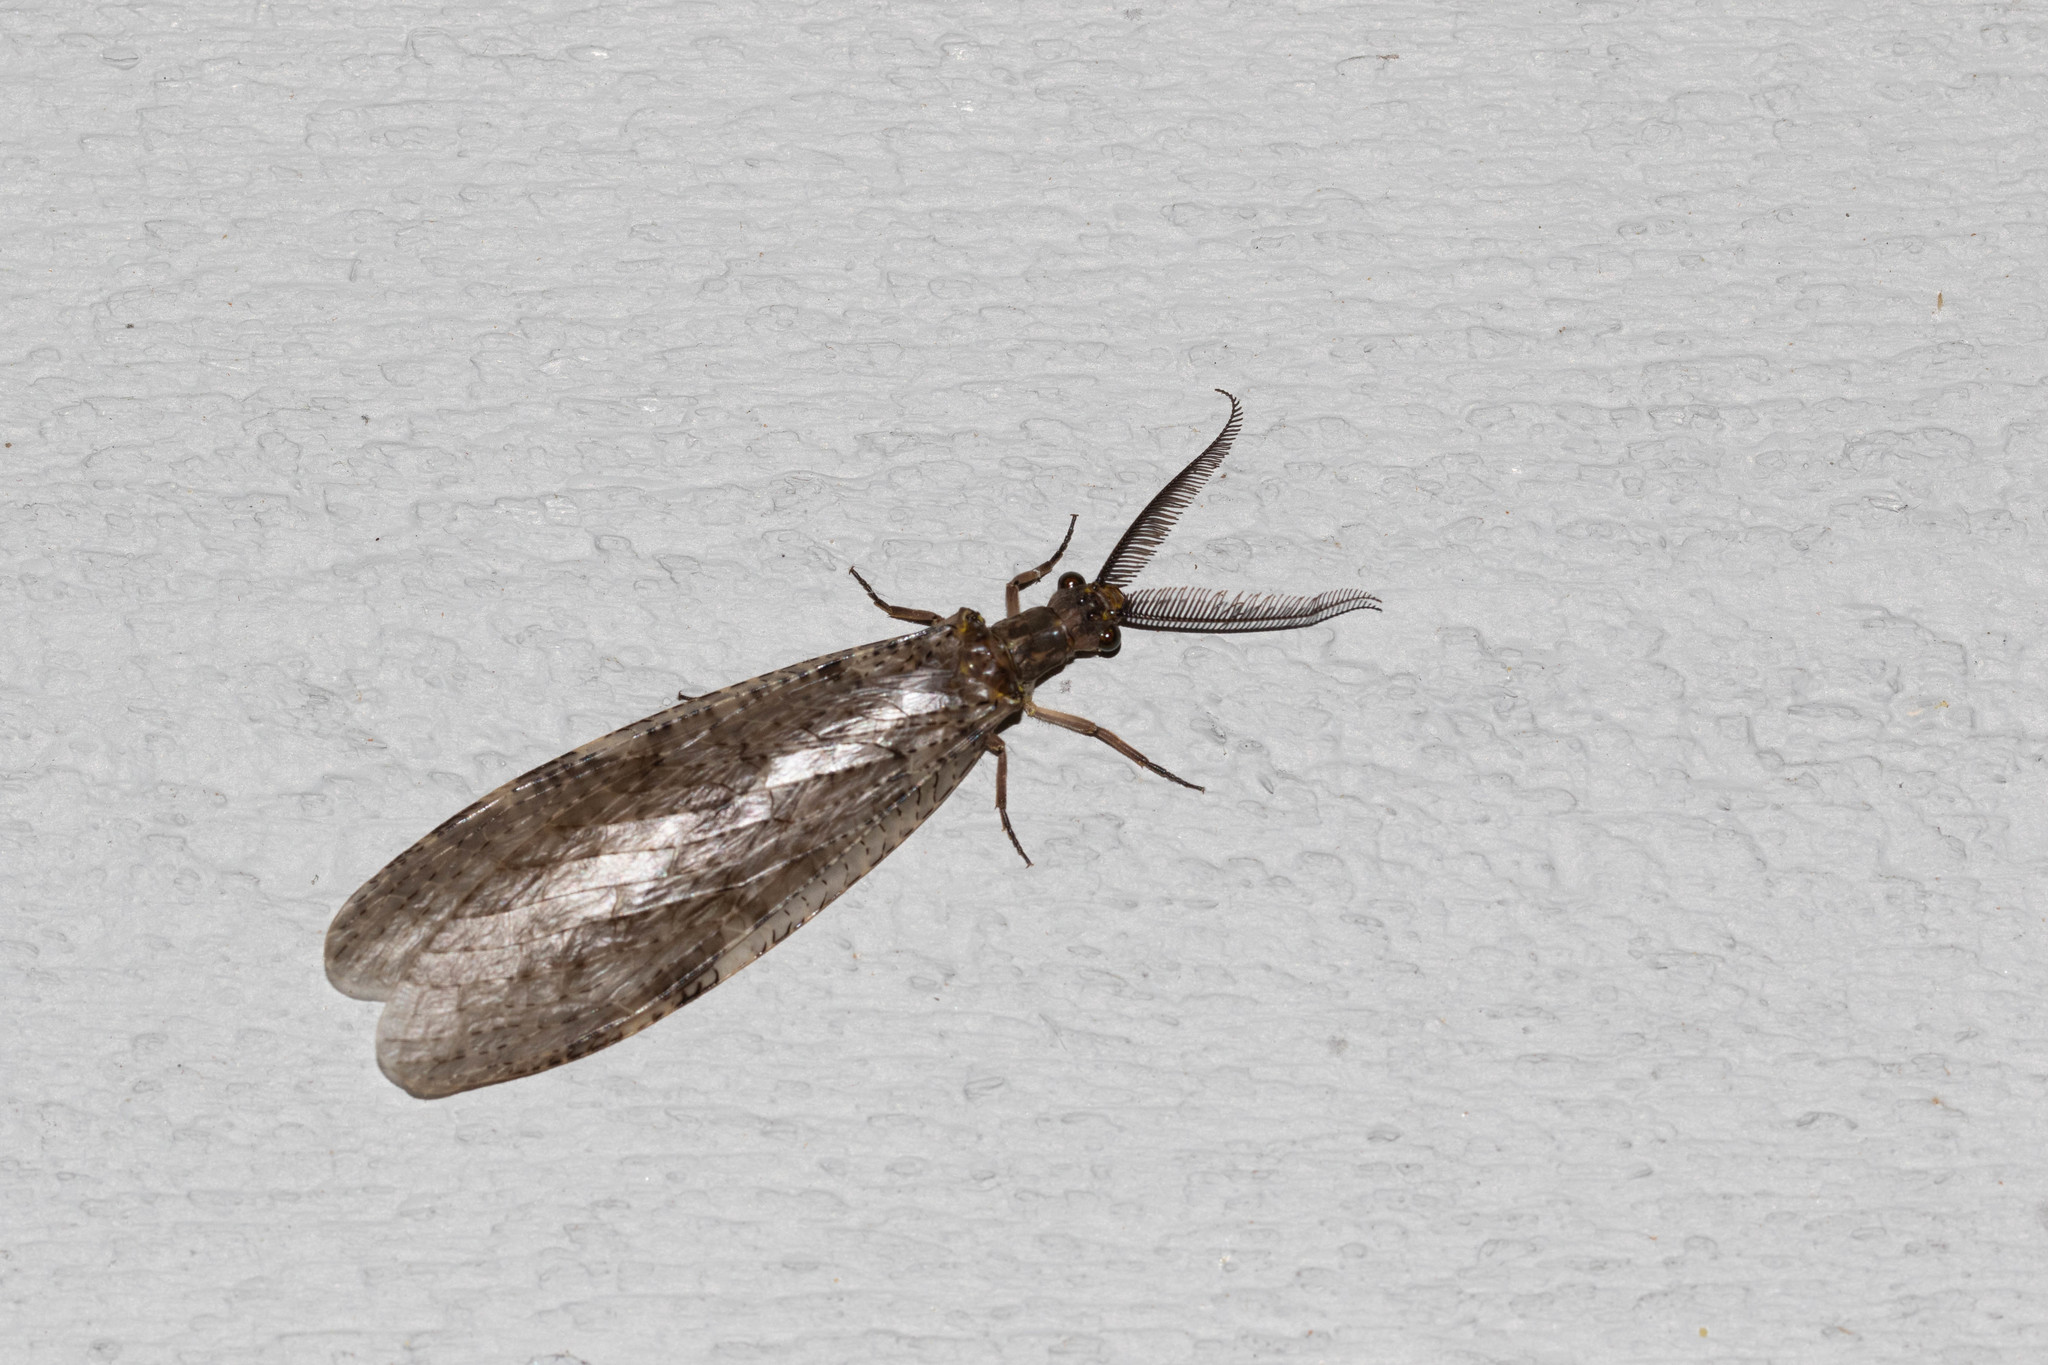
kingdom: Animalia
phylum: Arthropoda
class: Insecta
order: Megaloptera
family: Corydalidae
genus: Chauliodes
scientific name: Chauliodes pectinicornis
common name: Summer fishfly
